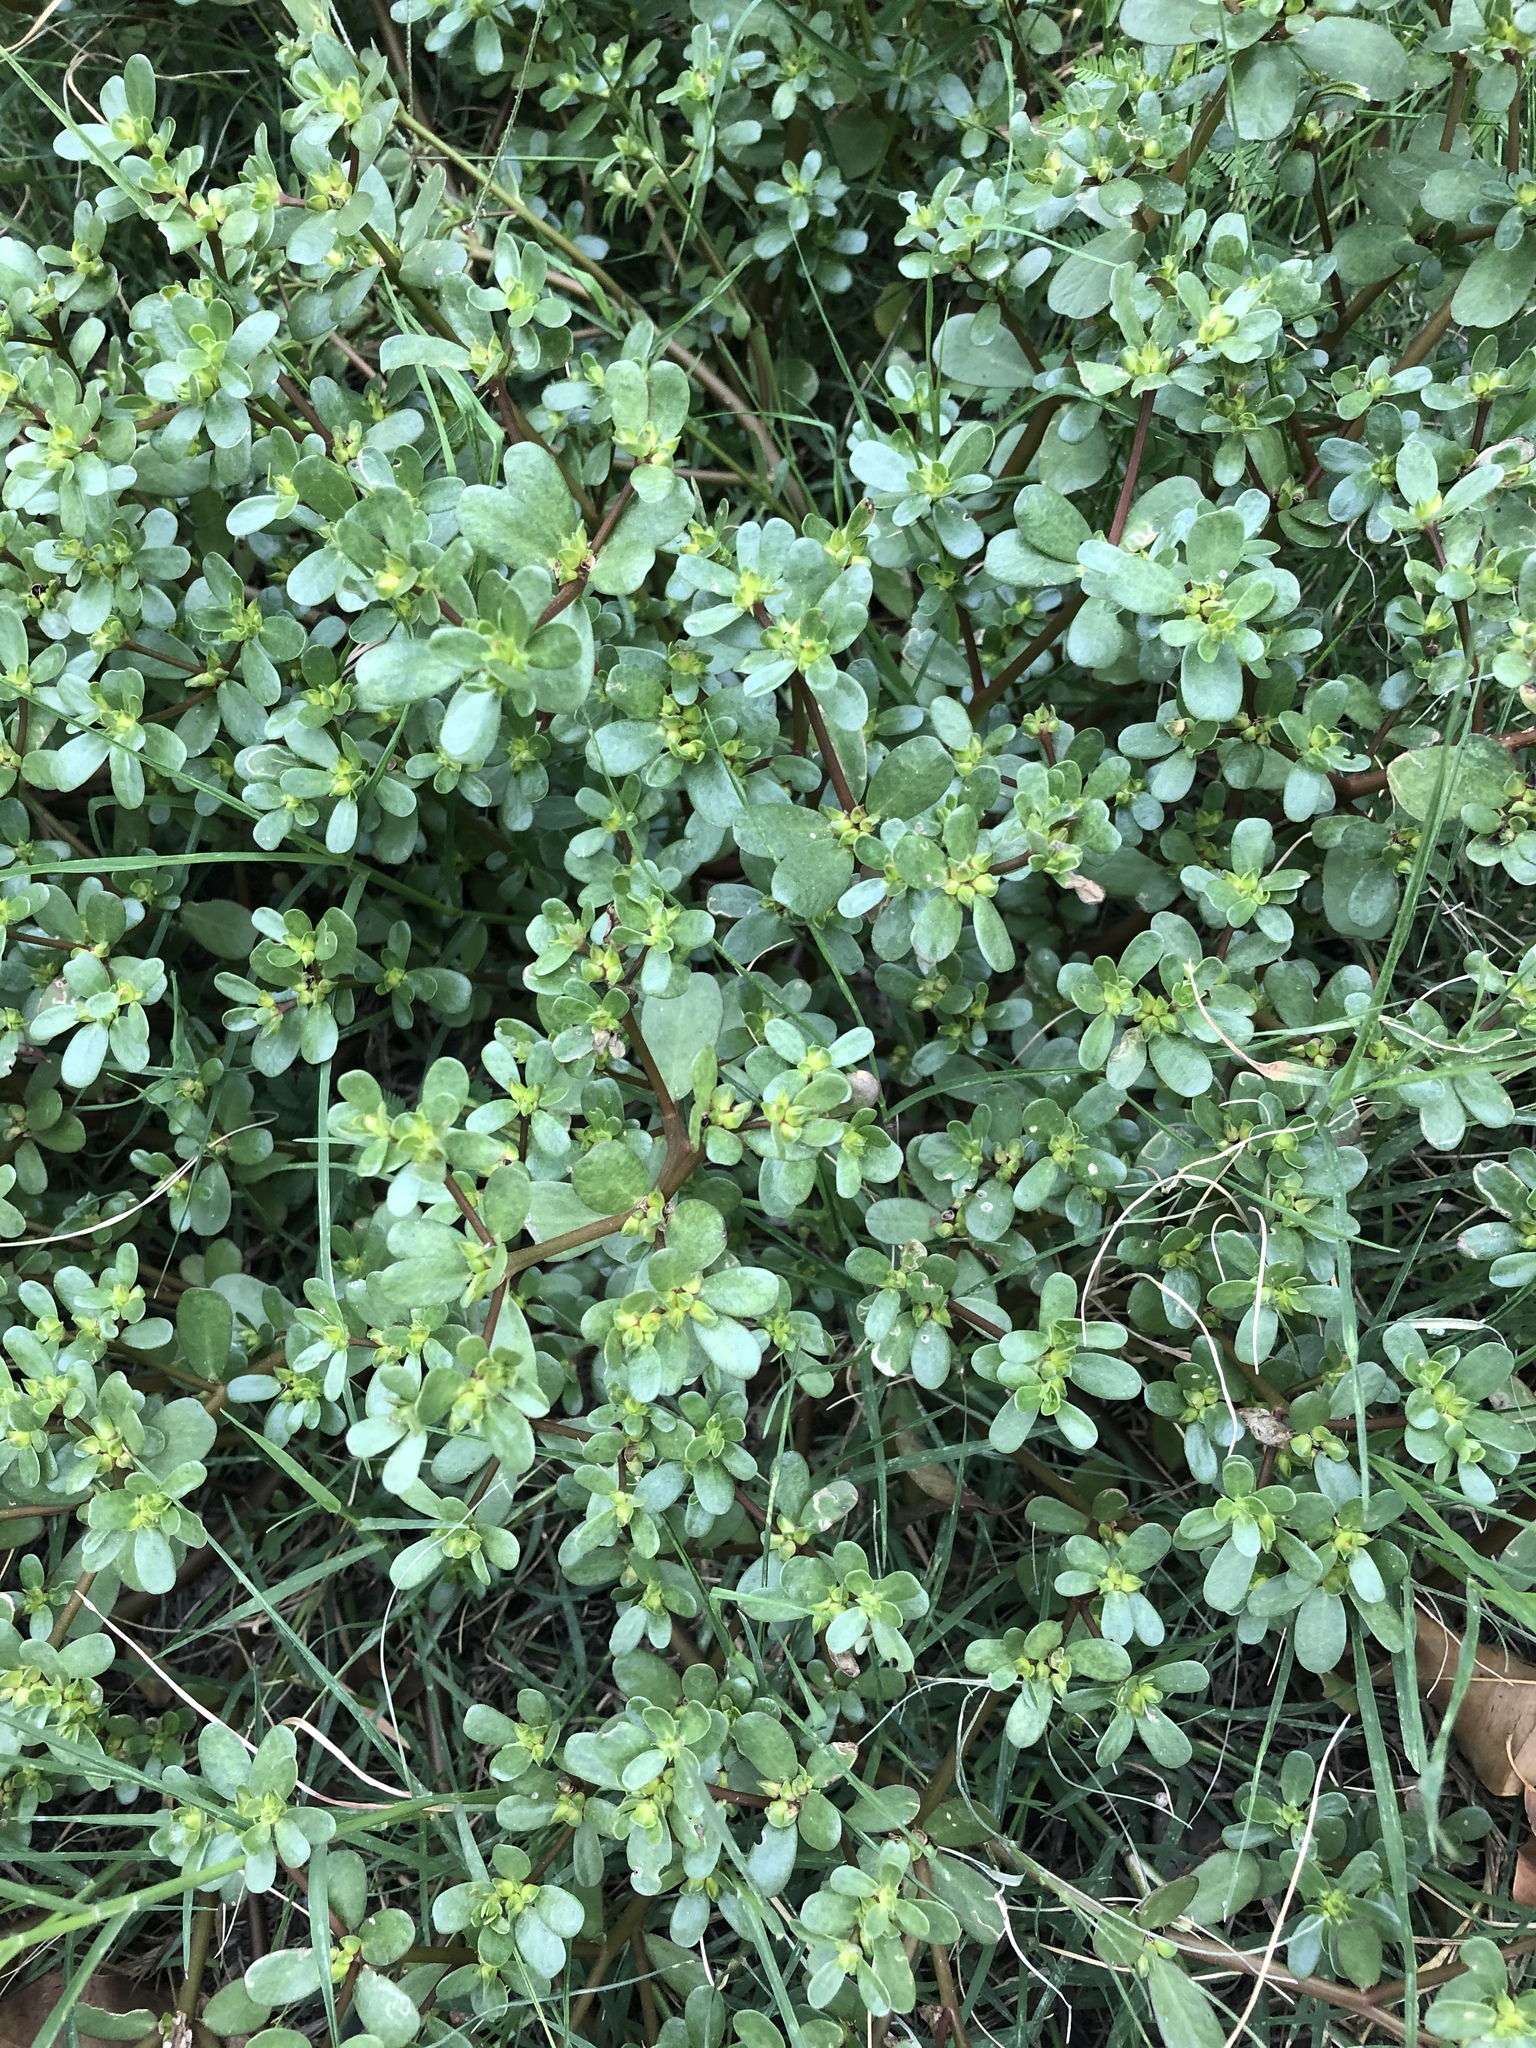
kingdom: Plantae
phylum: Tracheophyta
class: Magnoliopsida
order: Caryophyllales
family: Portulacaceae
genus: Portulaca
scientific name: Portulaca oleracea
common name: Common purslane
